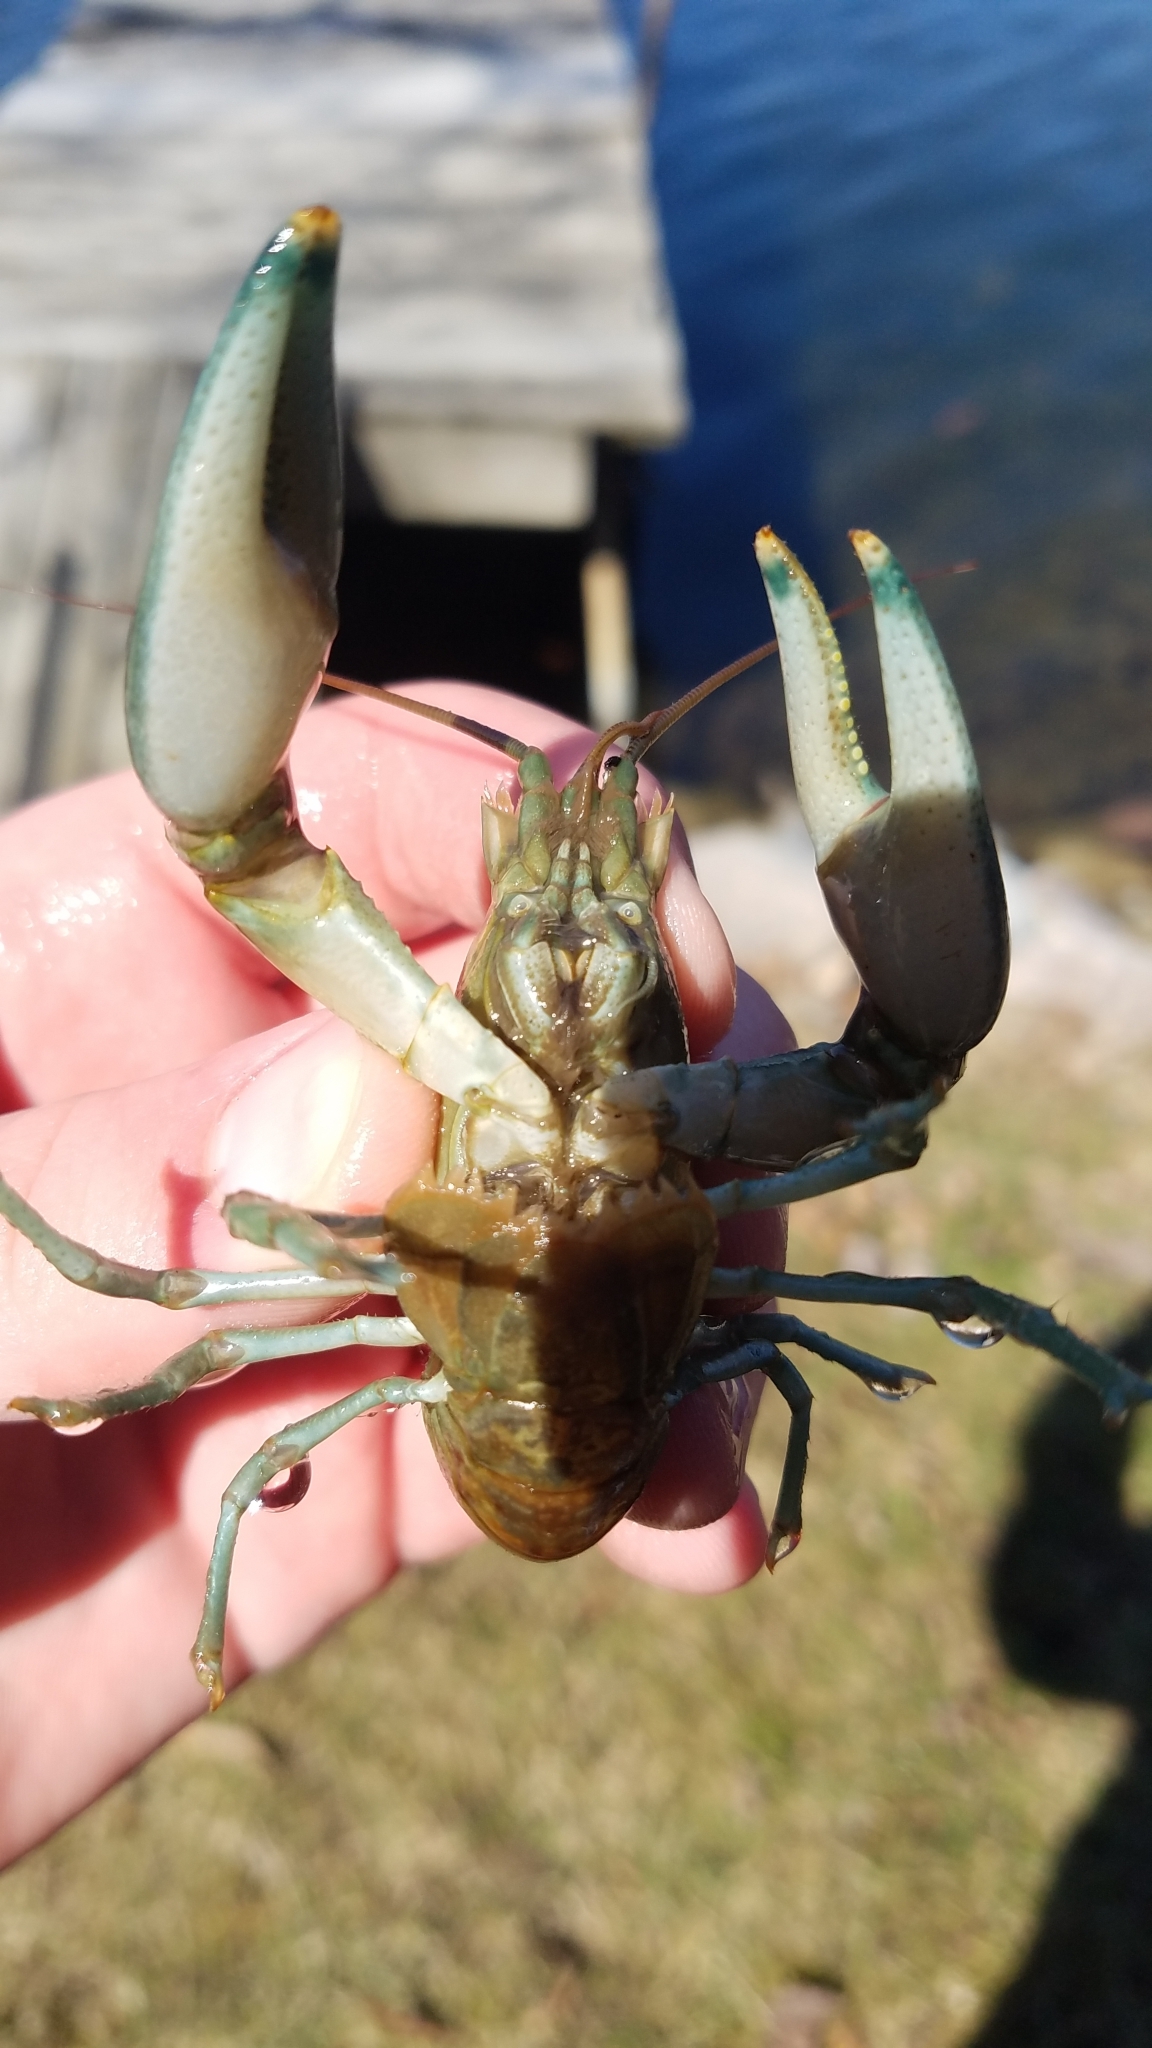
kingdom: Animalia
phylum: Arthropoda
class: Malacostraca
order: Decapoda
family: Cambaridae
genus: Faxonius
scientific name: Faxonius rusticus
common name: Rusty crayfish
